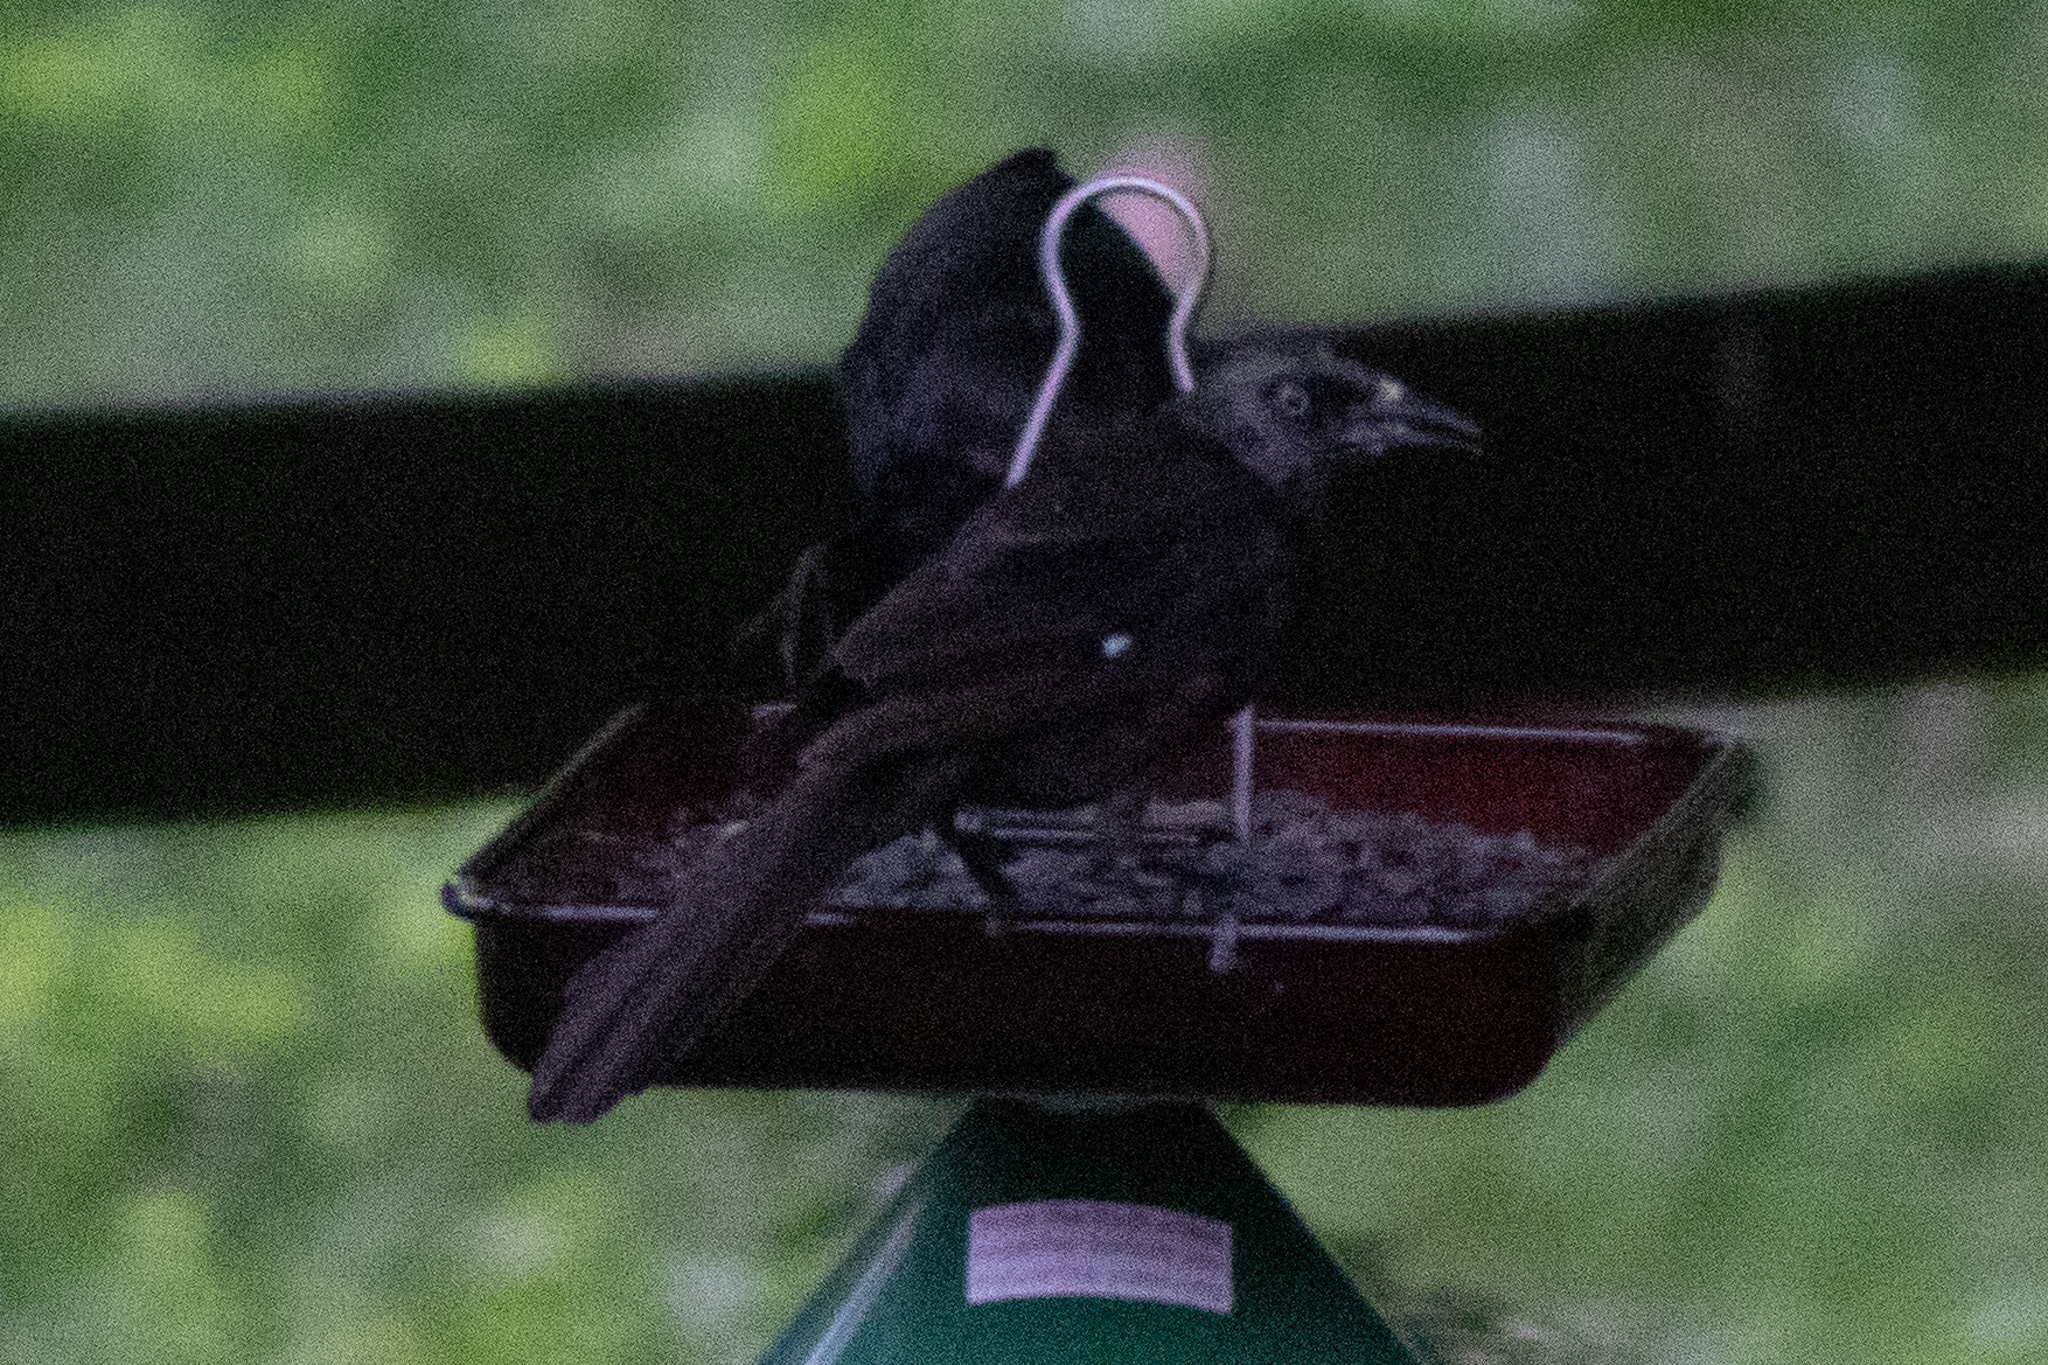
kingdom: Animalia
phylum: Chordata
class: Aves
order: Passeriformes
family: Icteridae
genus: Quiscalus
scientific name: Quiscalus quiscula
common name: Common grackle
